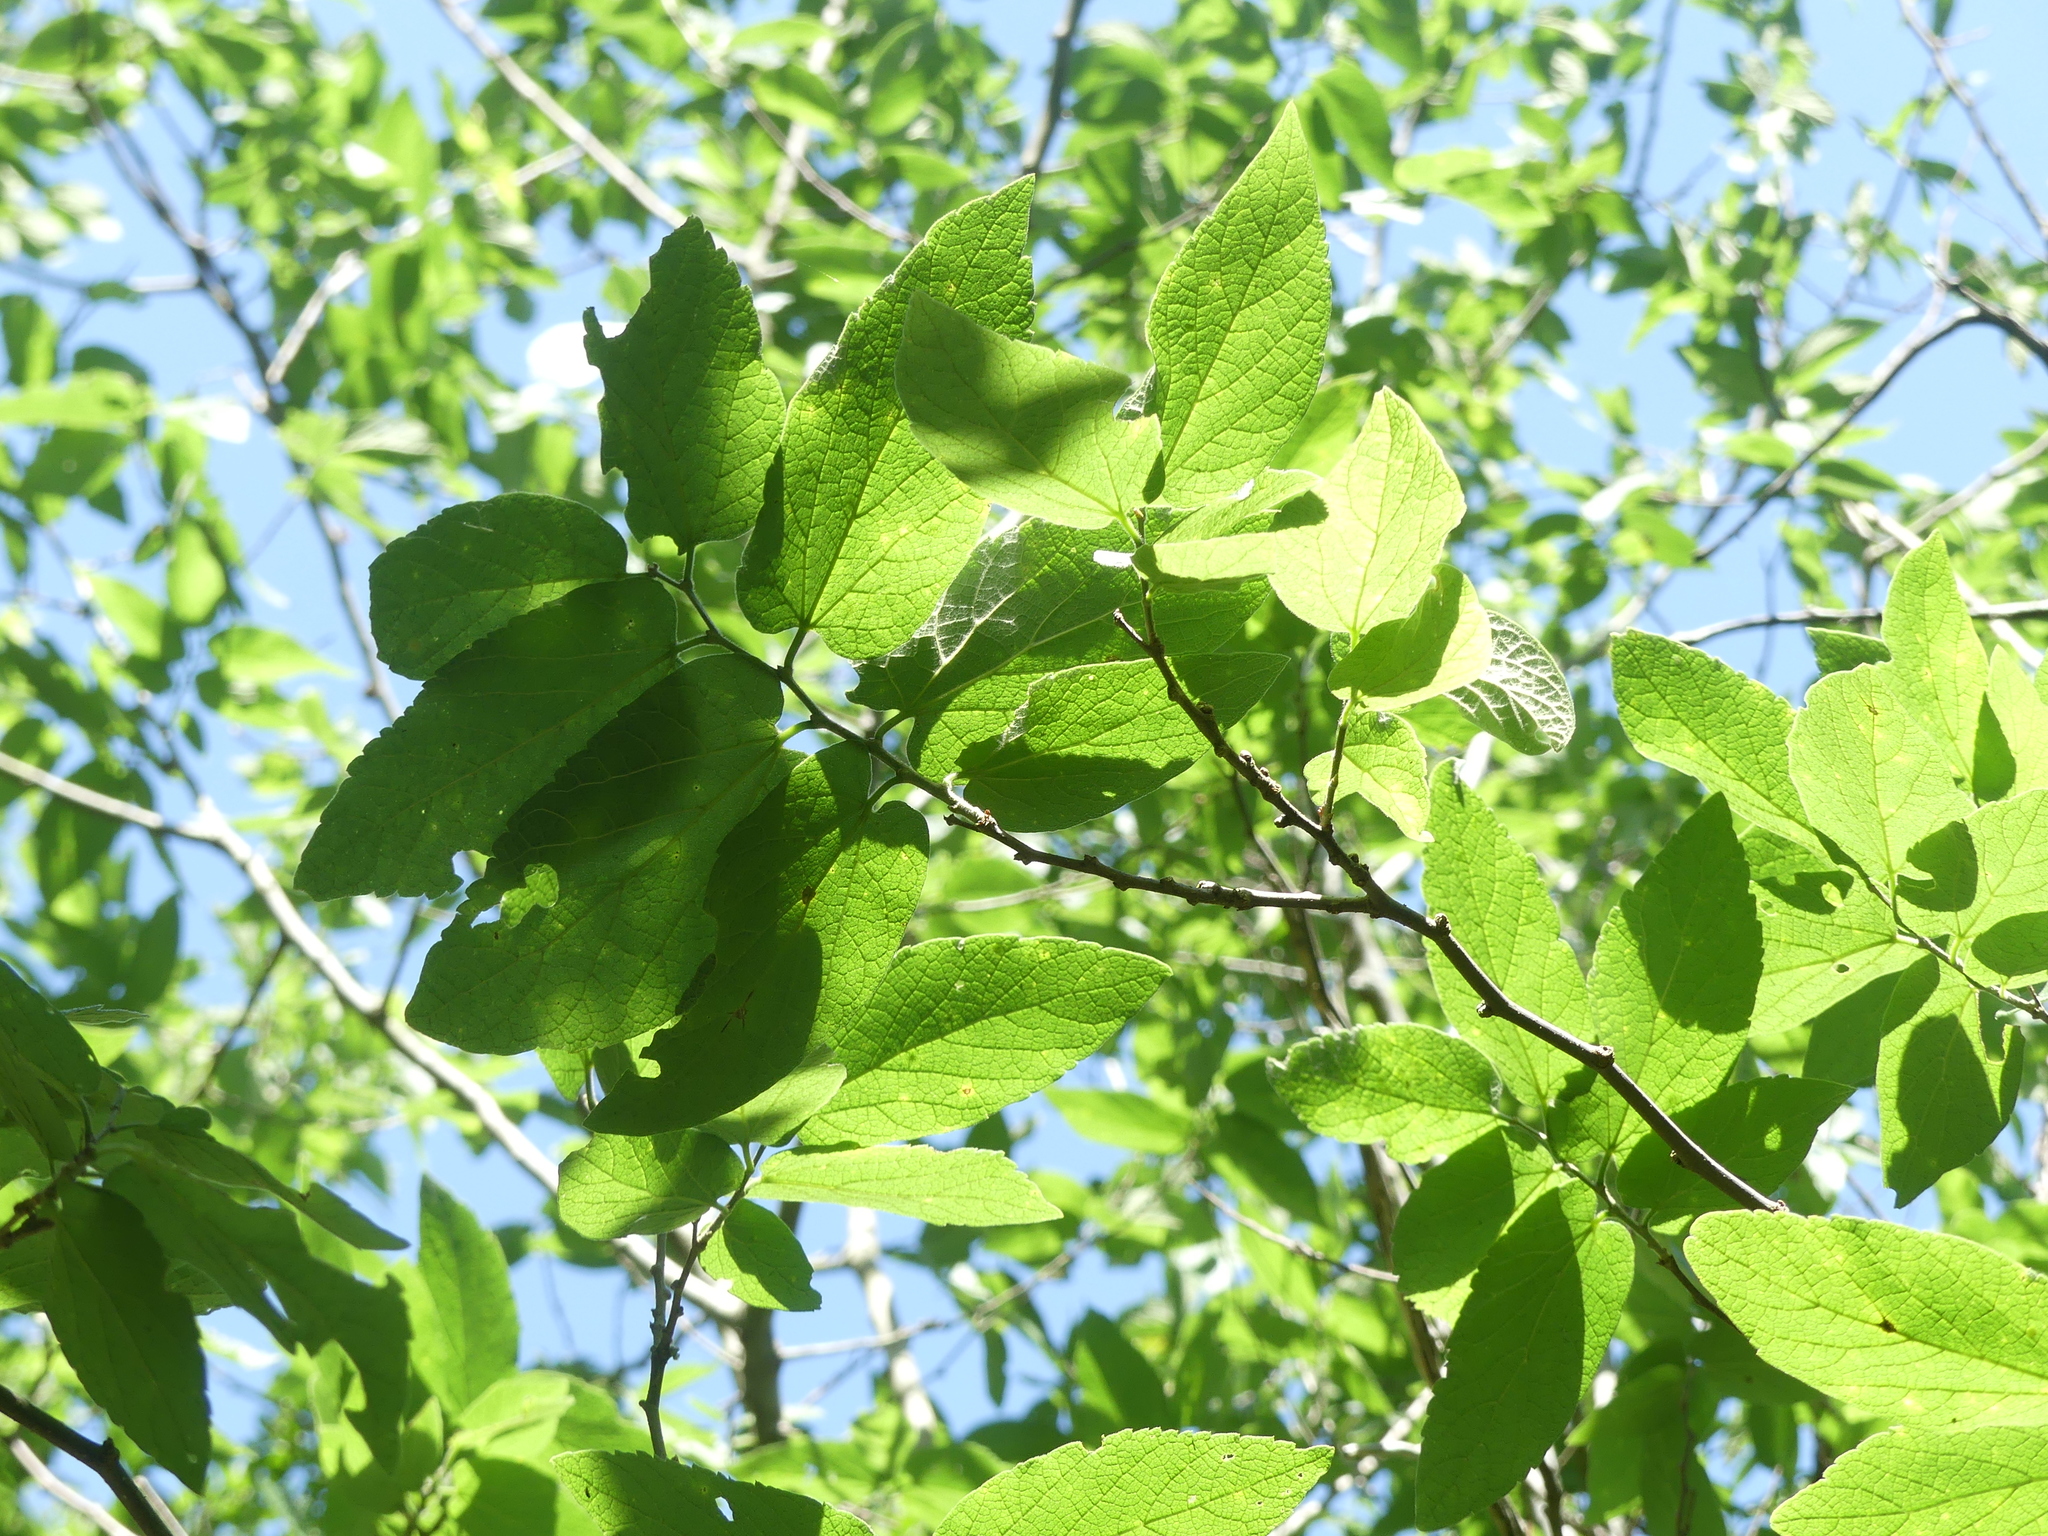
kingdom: Plantae
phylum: Tracheophyta
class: Magnoliopsida
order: Rosales
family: Cannabaceae
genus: Celtis
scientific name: Celtis reticulata
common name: Netleaf hackberry
